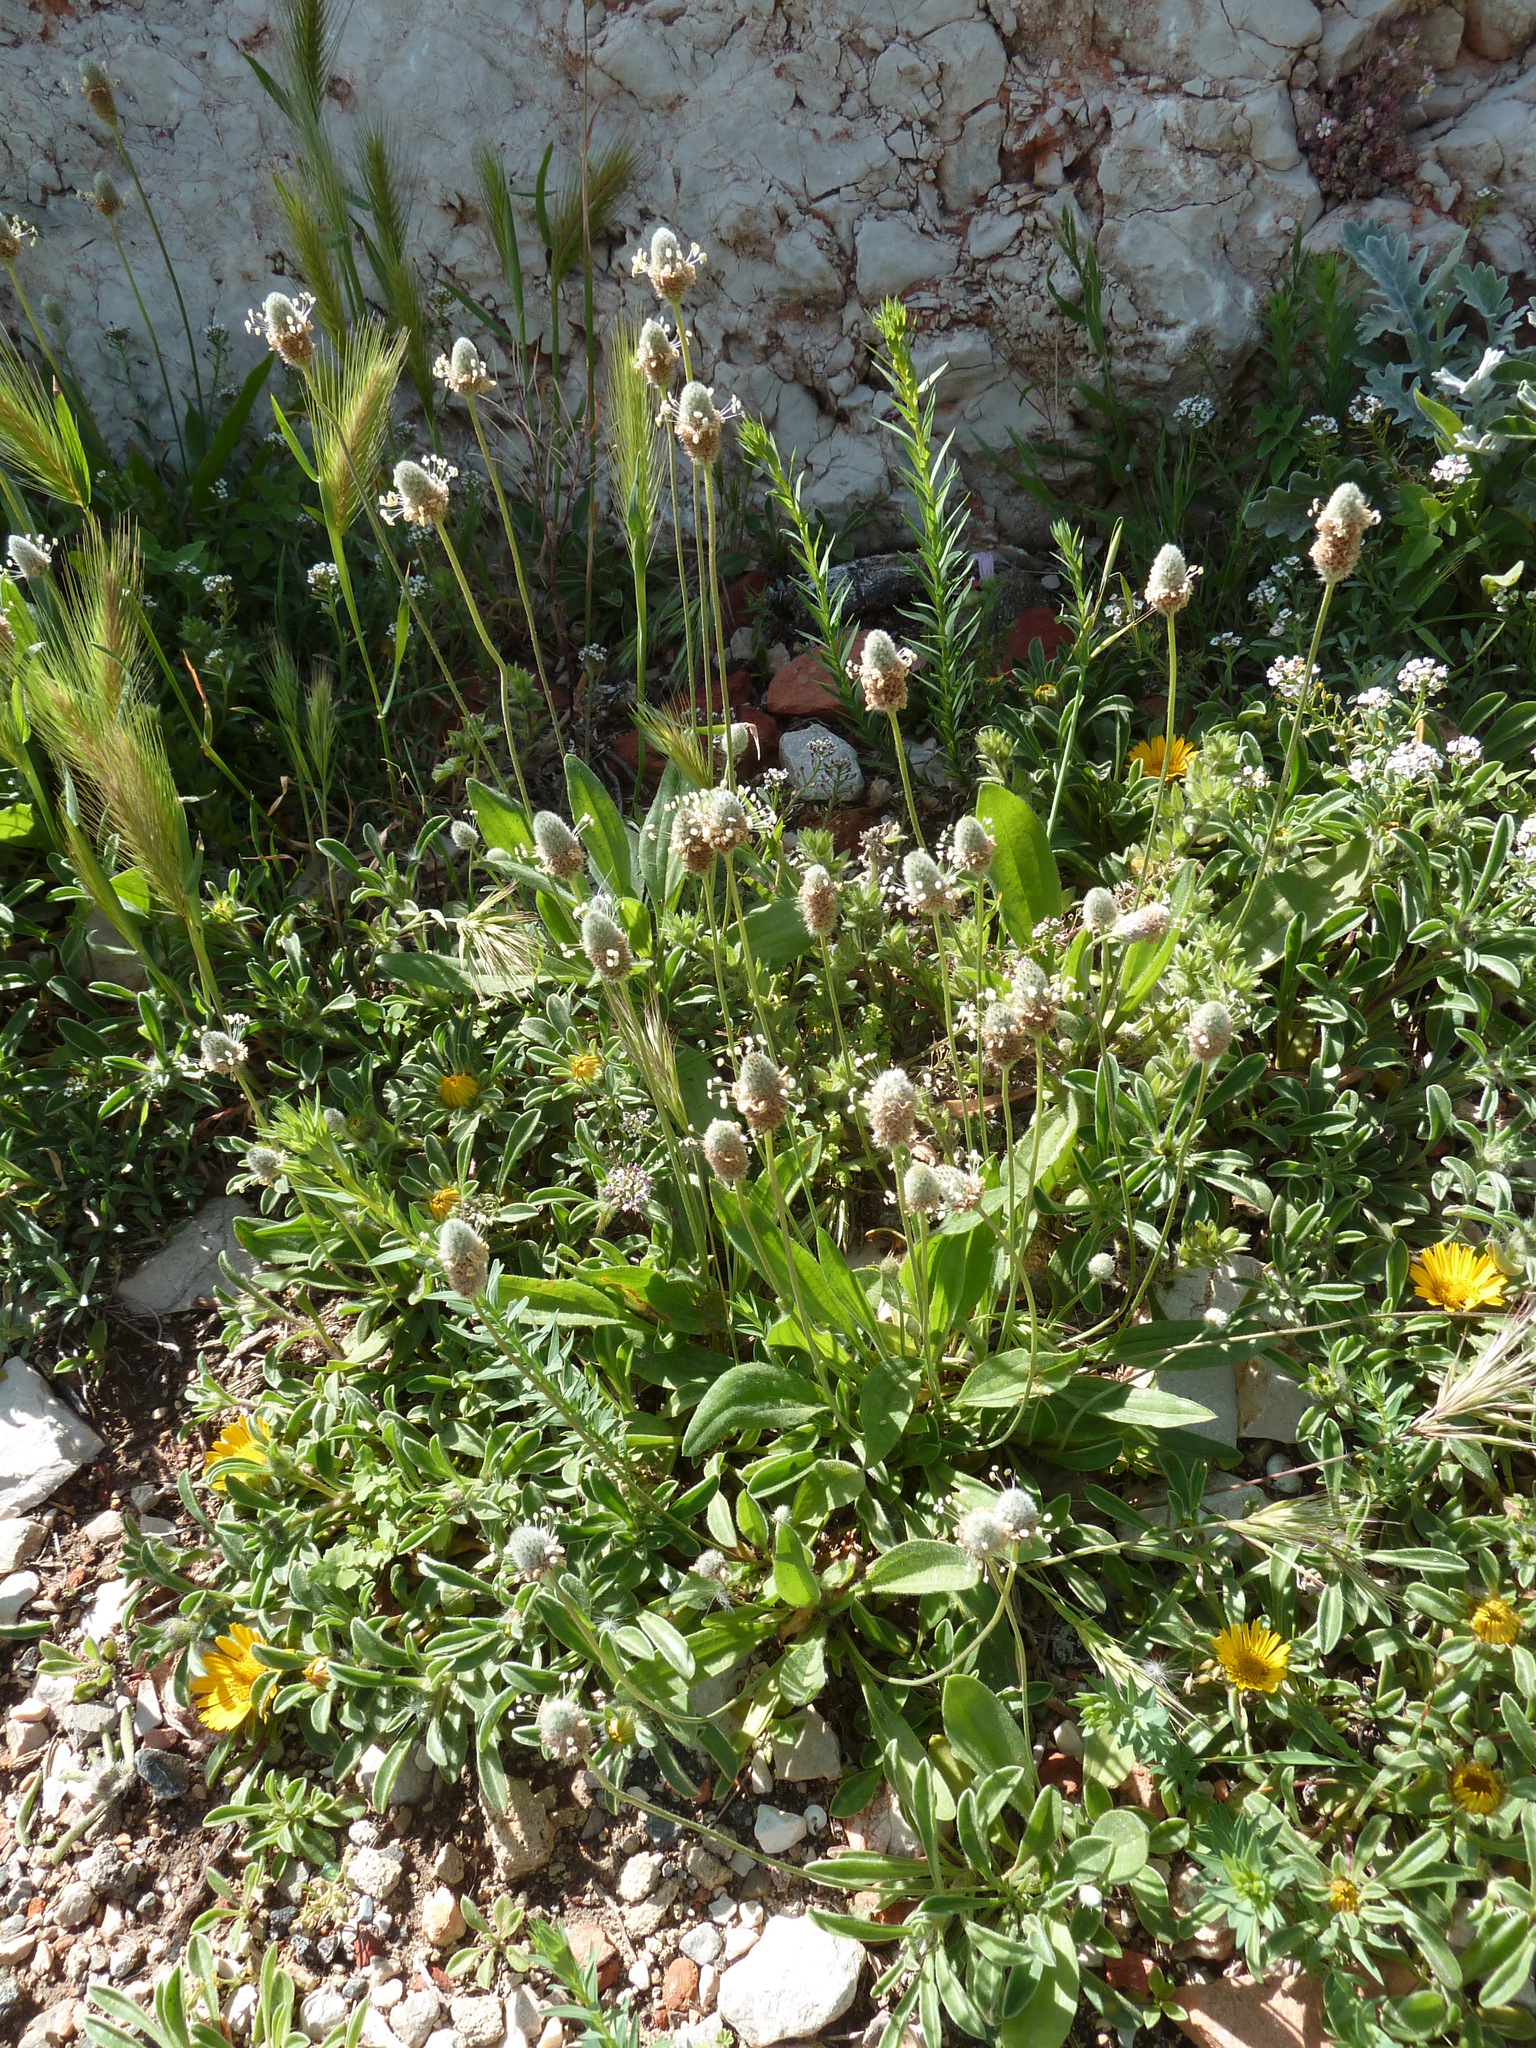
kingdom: Plantae
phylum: Tracheophyta
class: Magnoliopsida
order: Lamiales
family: Plantaginaceae
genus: Plantago
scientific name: Plantago lagopus
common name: Hare-foot plantain
